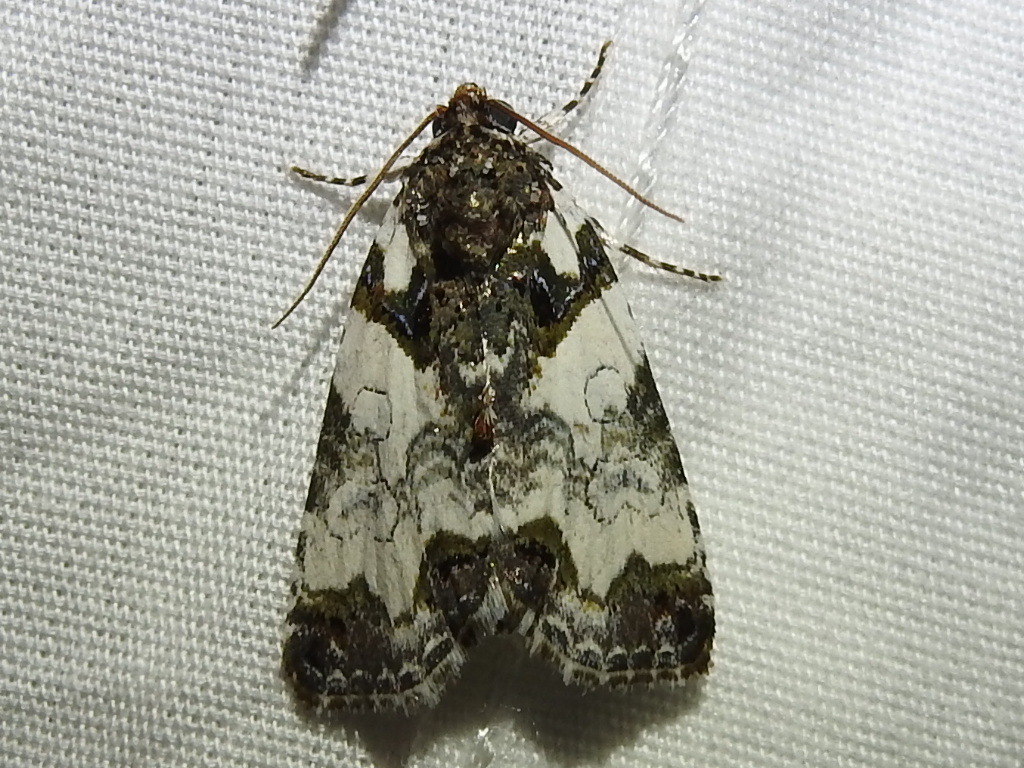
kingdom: Animalia
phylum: Arthropoda
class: Insecta
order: Lepidoptera
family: Noctuidae
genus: Cerma
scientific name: Cerma cerintha
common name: Tufted bird-dropping moth
